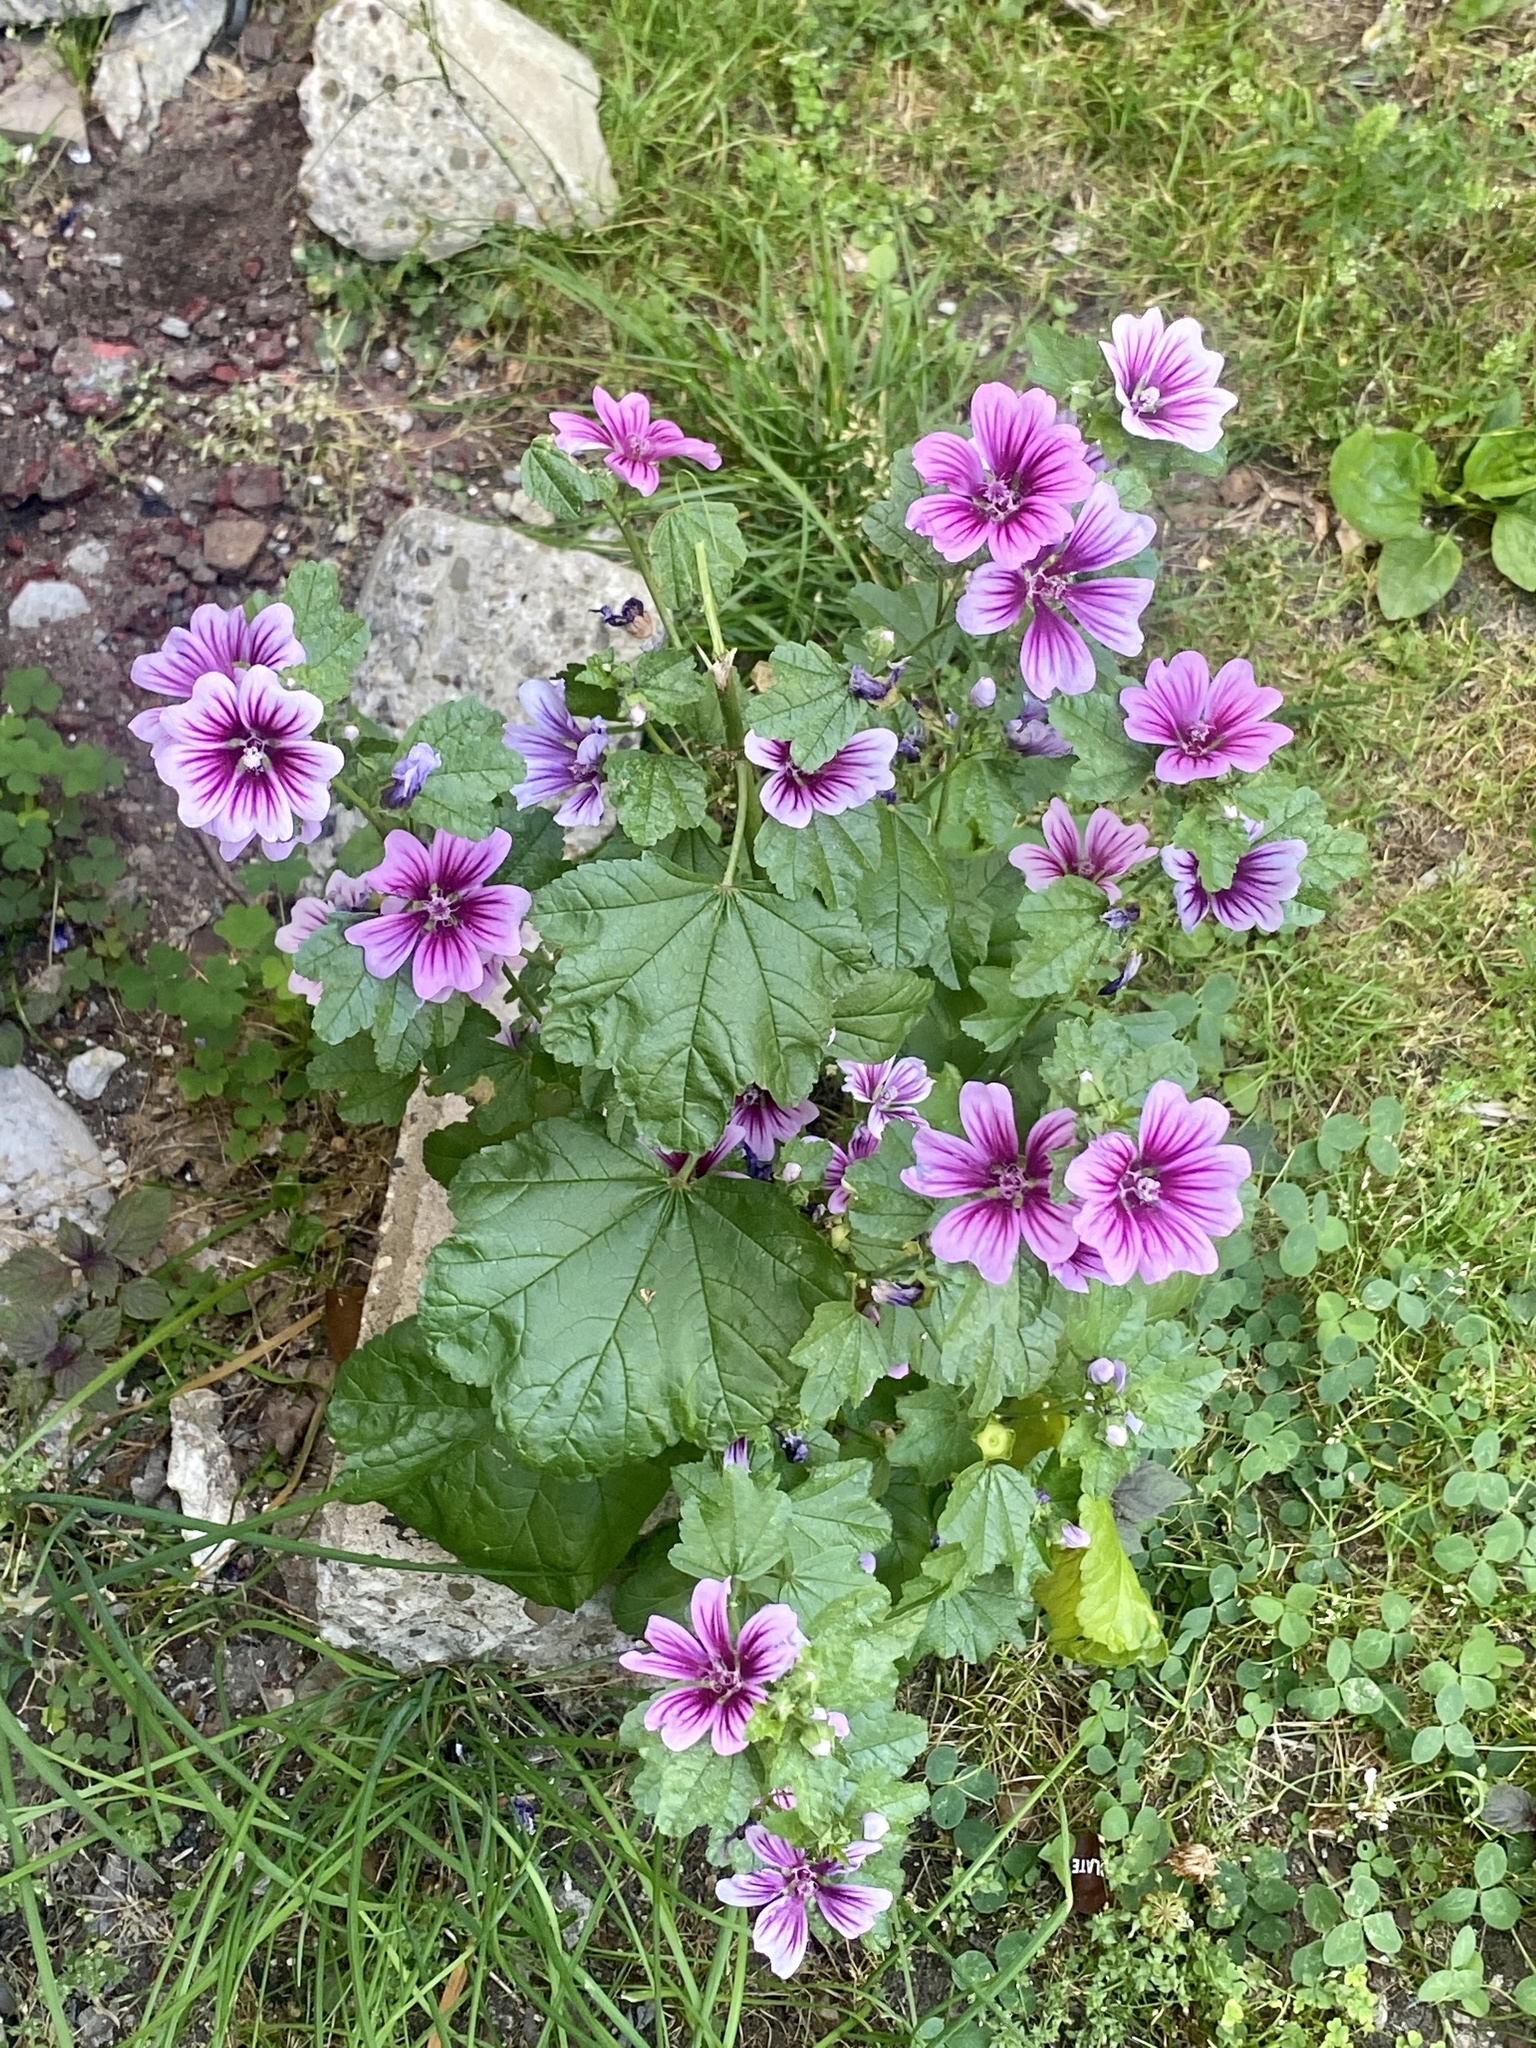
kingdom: Plantae
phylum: Tracheophyta
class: Magnoliopsida
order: Malvales
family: Malvaceae
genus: Malva
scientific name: Malva sylvestris
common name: Common mallow
